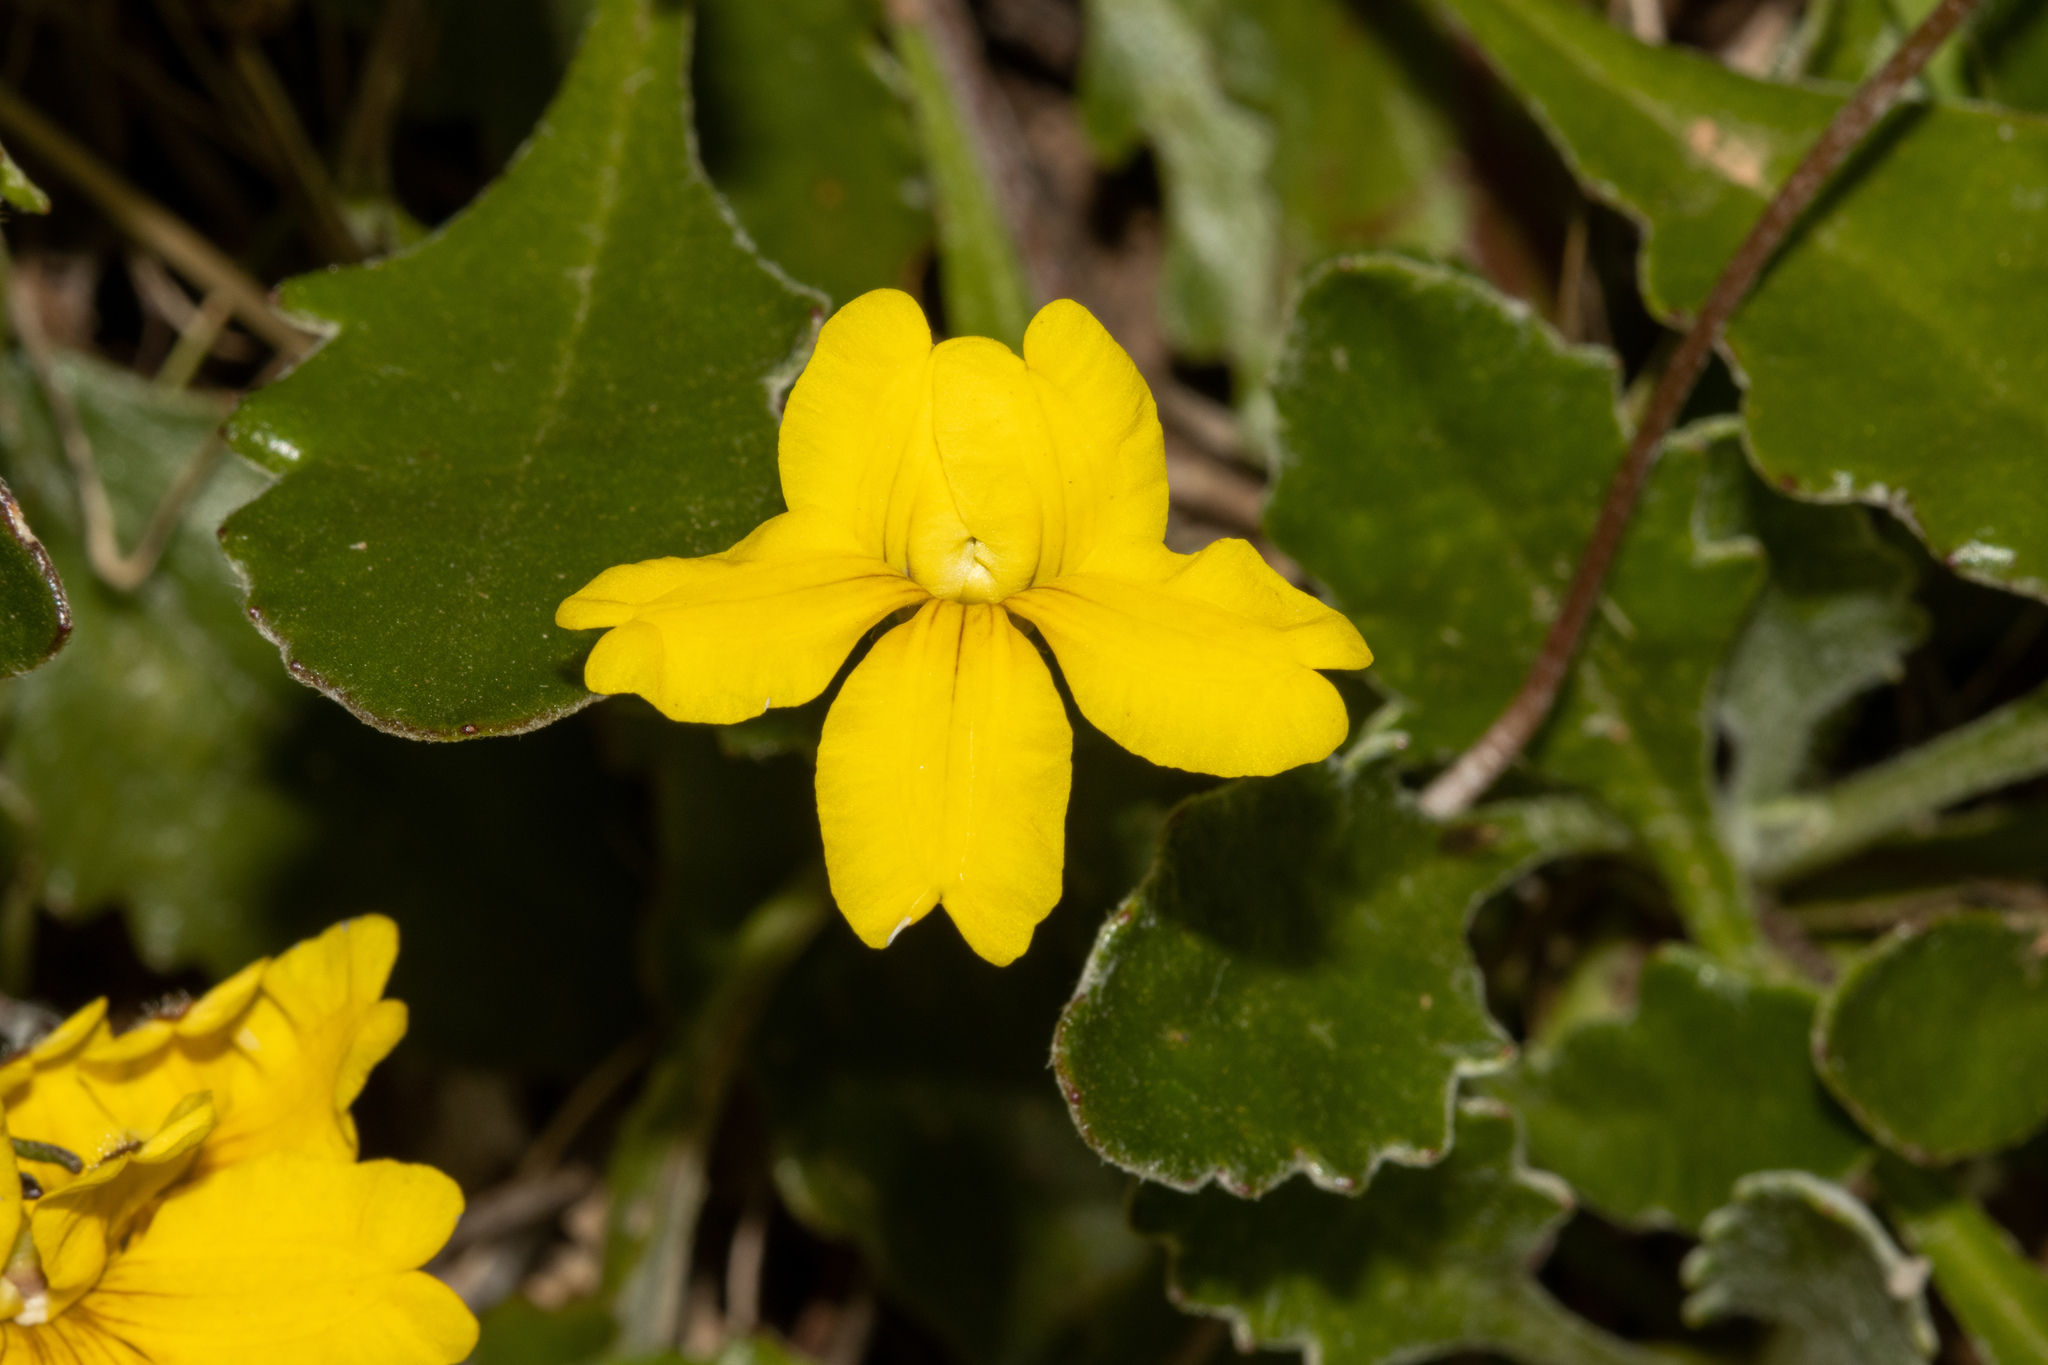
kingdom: Plantae
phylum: Tracheophyta
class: Magnoliopsida
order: Asterales
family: Goodeniaceae
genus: Goodenia
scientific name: Goodenia blackiana
